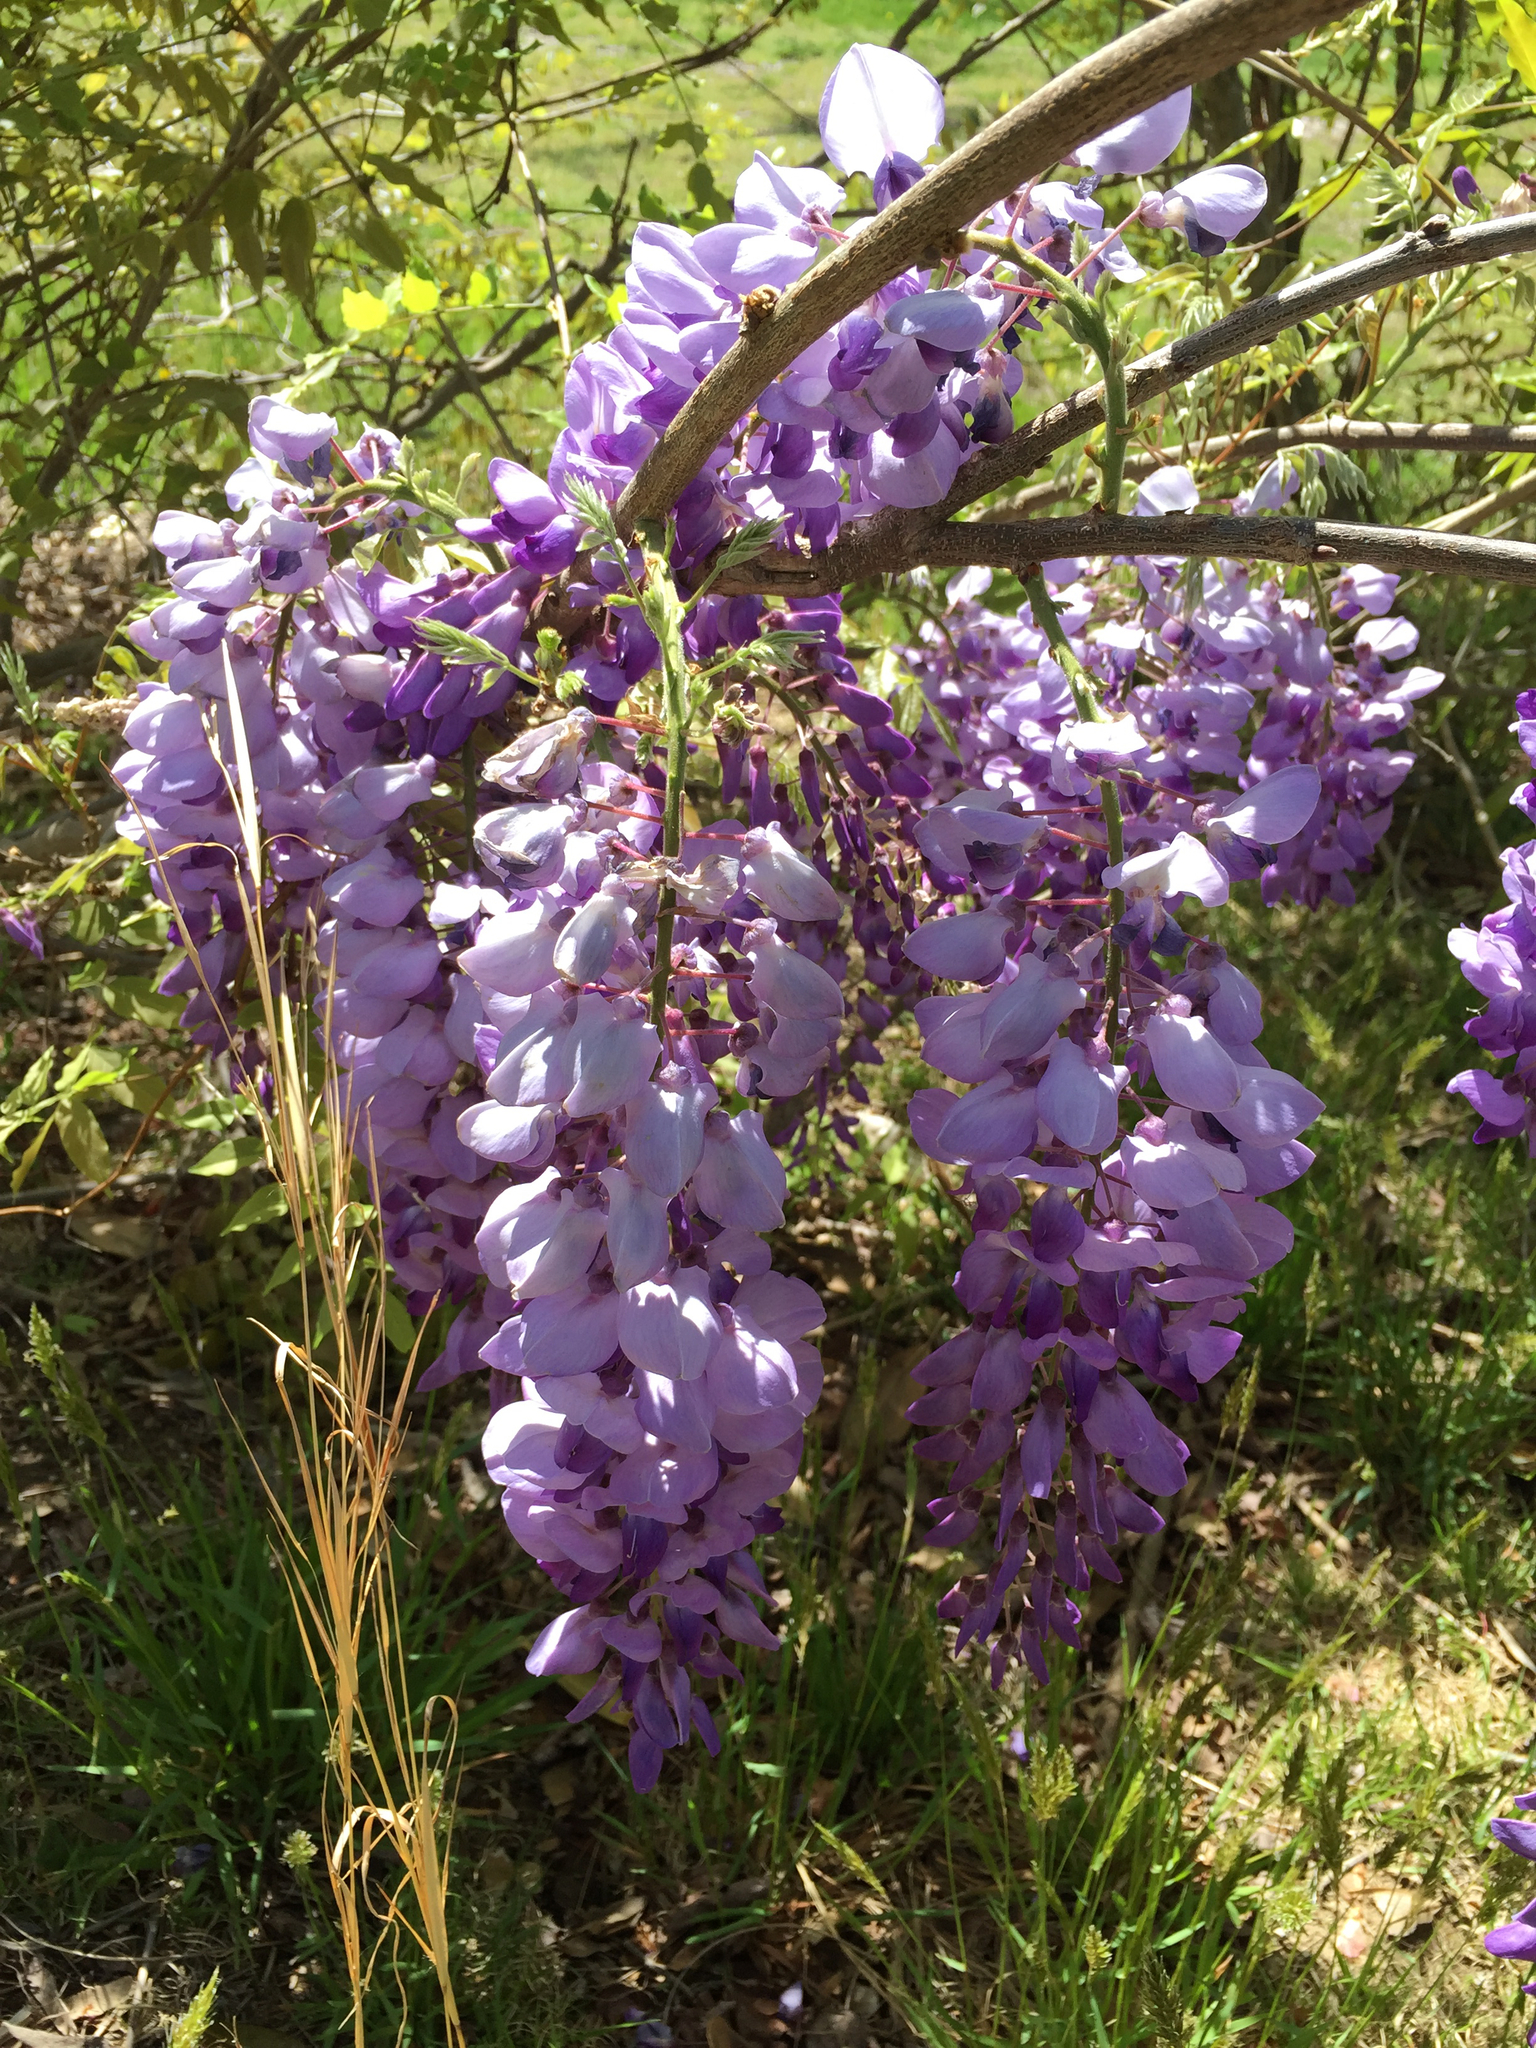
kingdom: Plantae
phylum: Tracheophyta
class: Magnoliopsida
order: Fabales
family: Fabaceae
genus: Wisteria
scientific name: Wisteria sinensis
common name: Chinese wisteria
